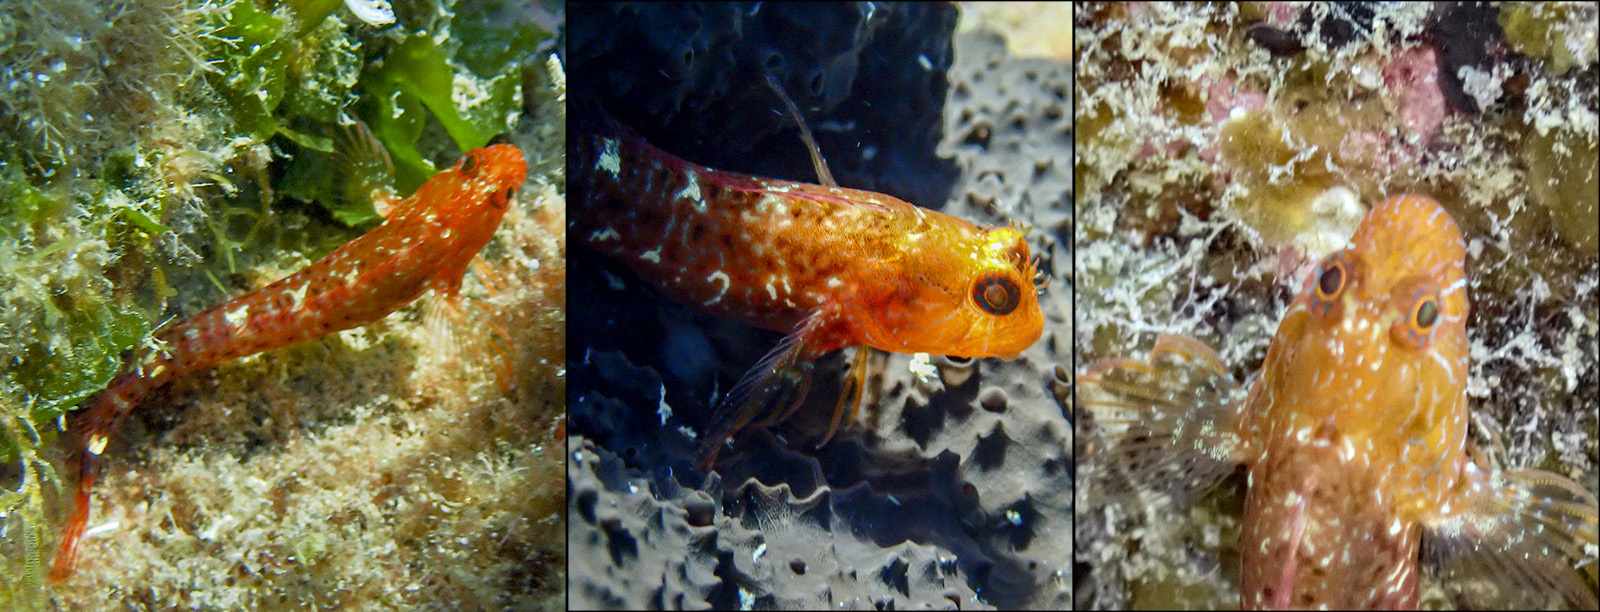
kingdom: Animalia
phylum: Chordata
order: Perciformes
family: Blenniidae
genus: Parablennius
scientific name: Parablennius zvonimiri
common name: Red blenny
